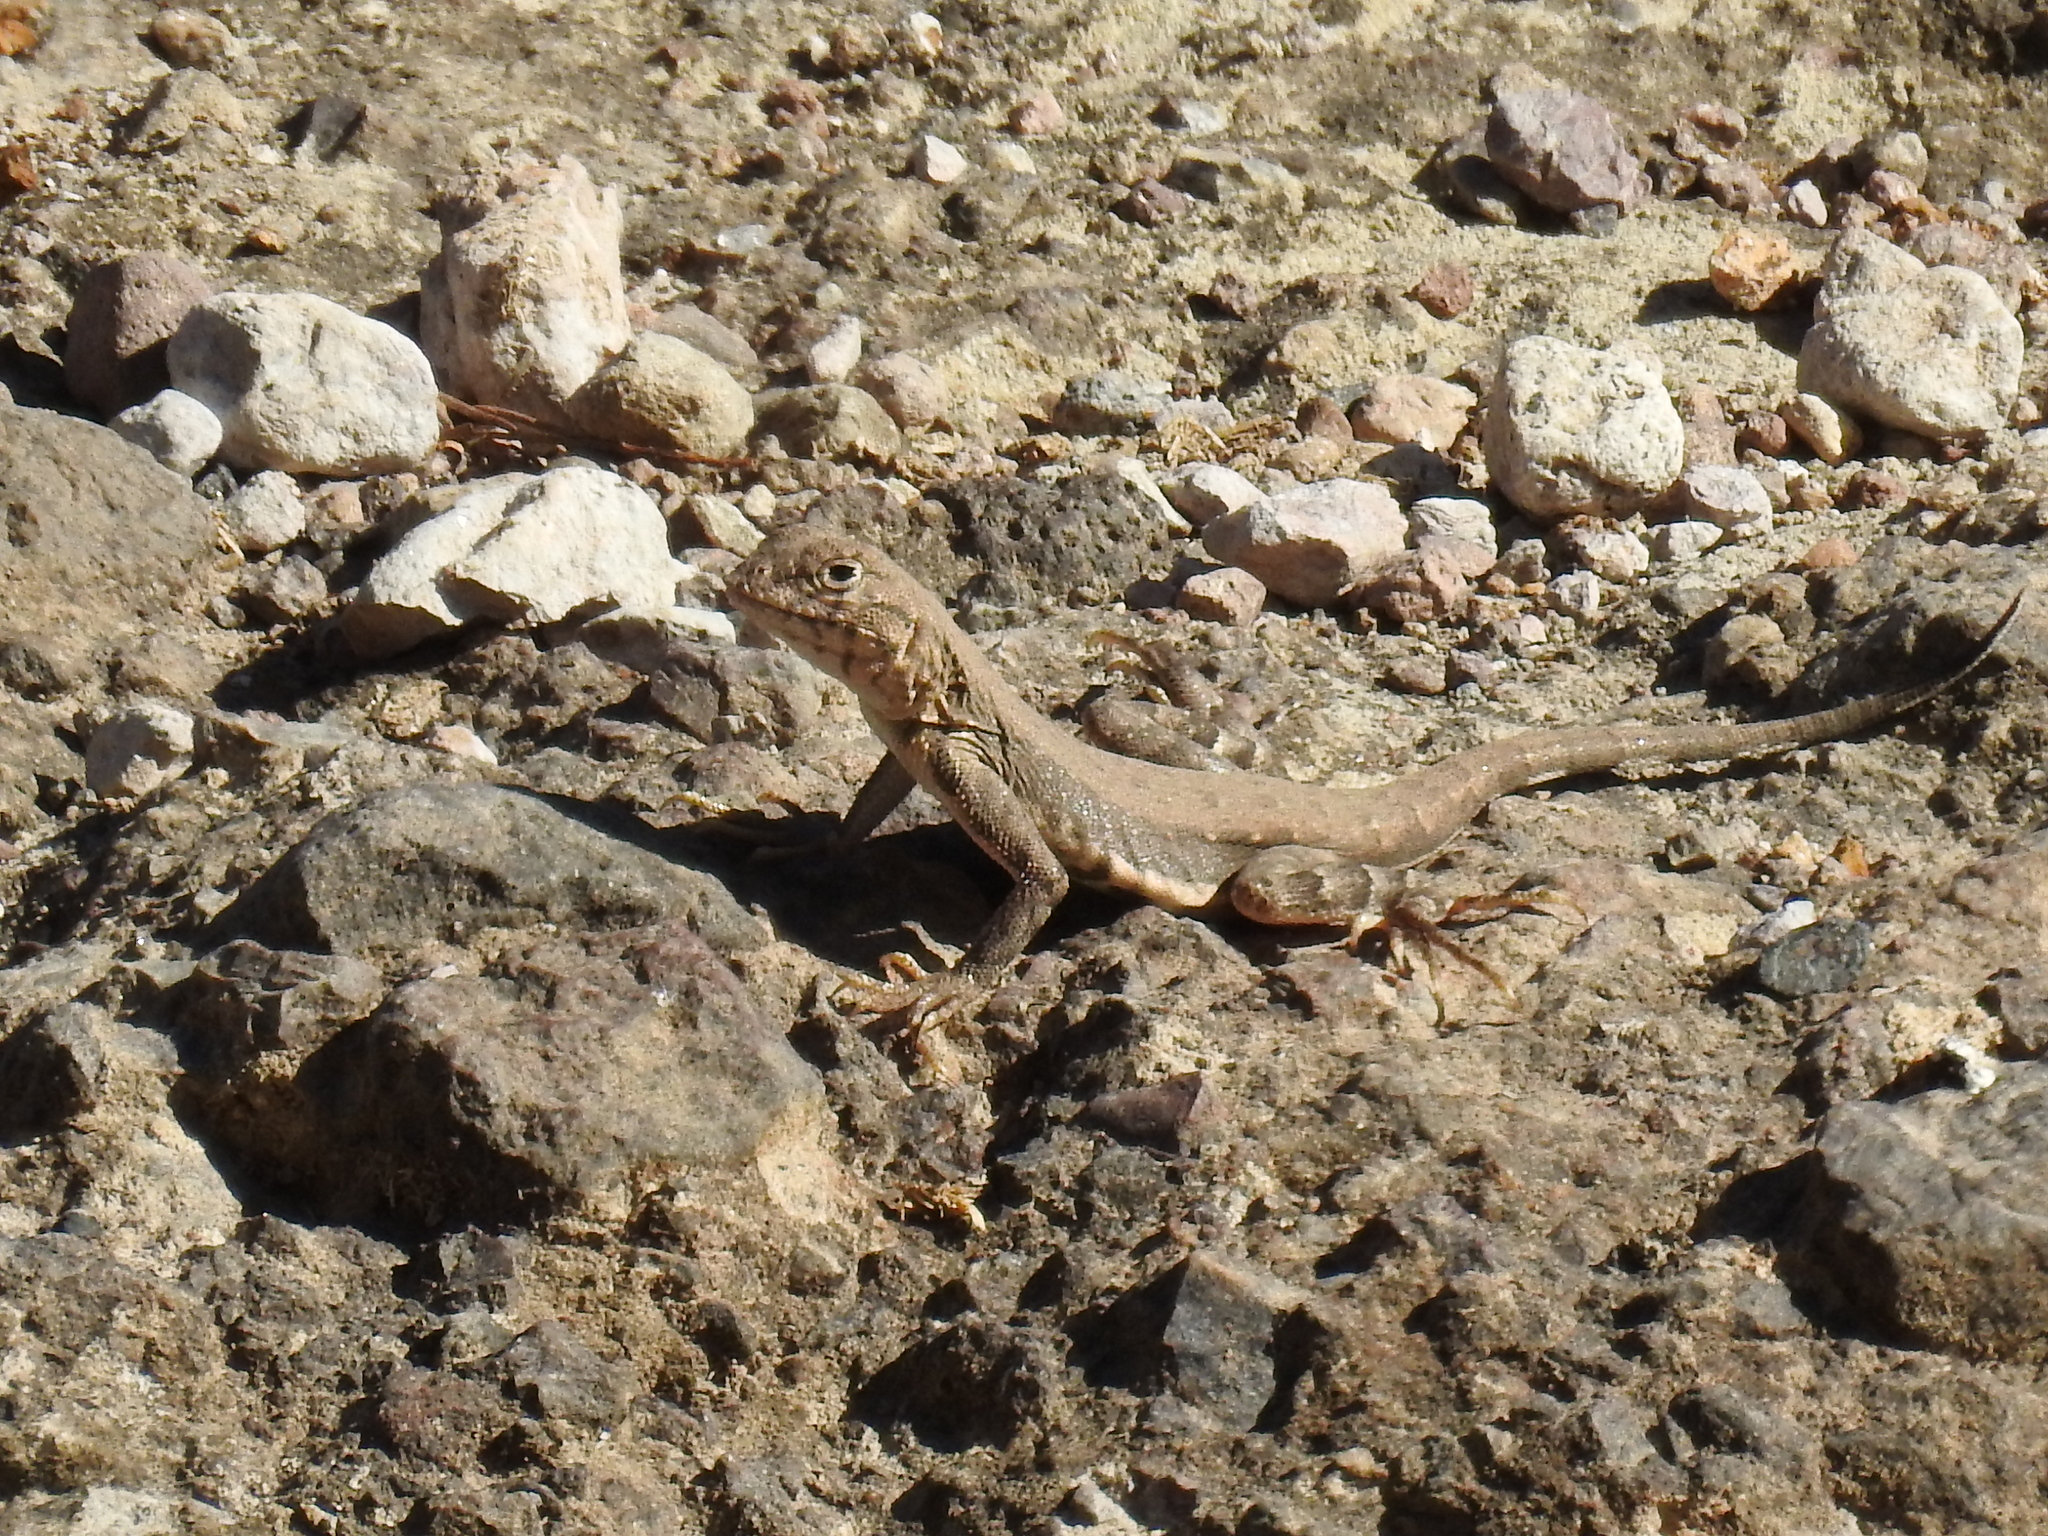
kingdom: Animalia
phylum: Chordata
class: Squamata
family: Phrynosomatidae
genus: Callisaurus
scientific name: Callisaurus draconoides
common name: Zebra-tailed lizard
